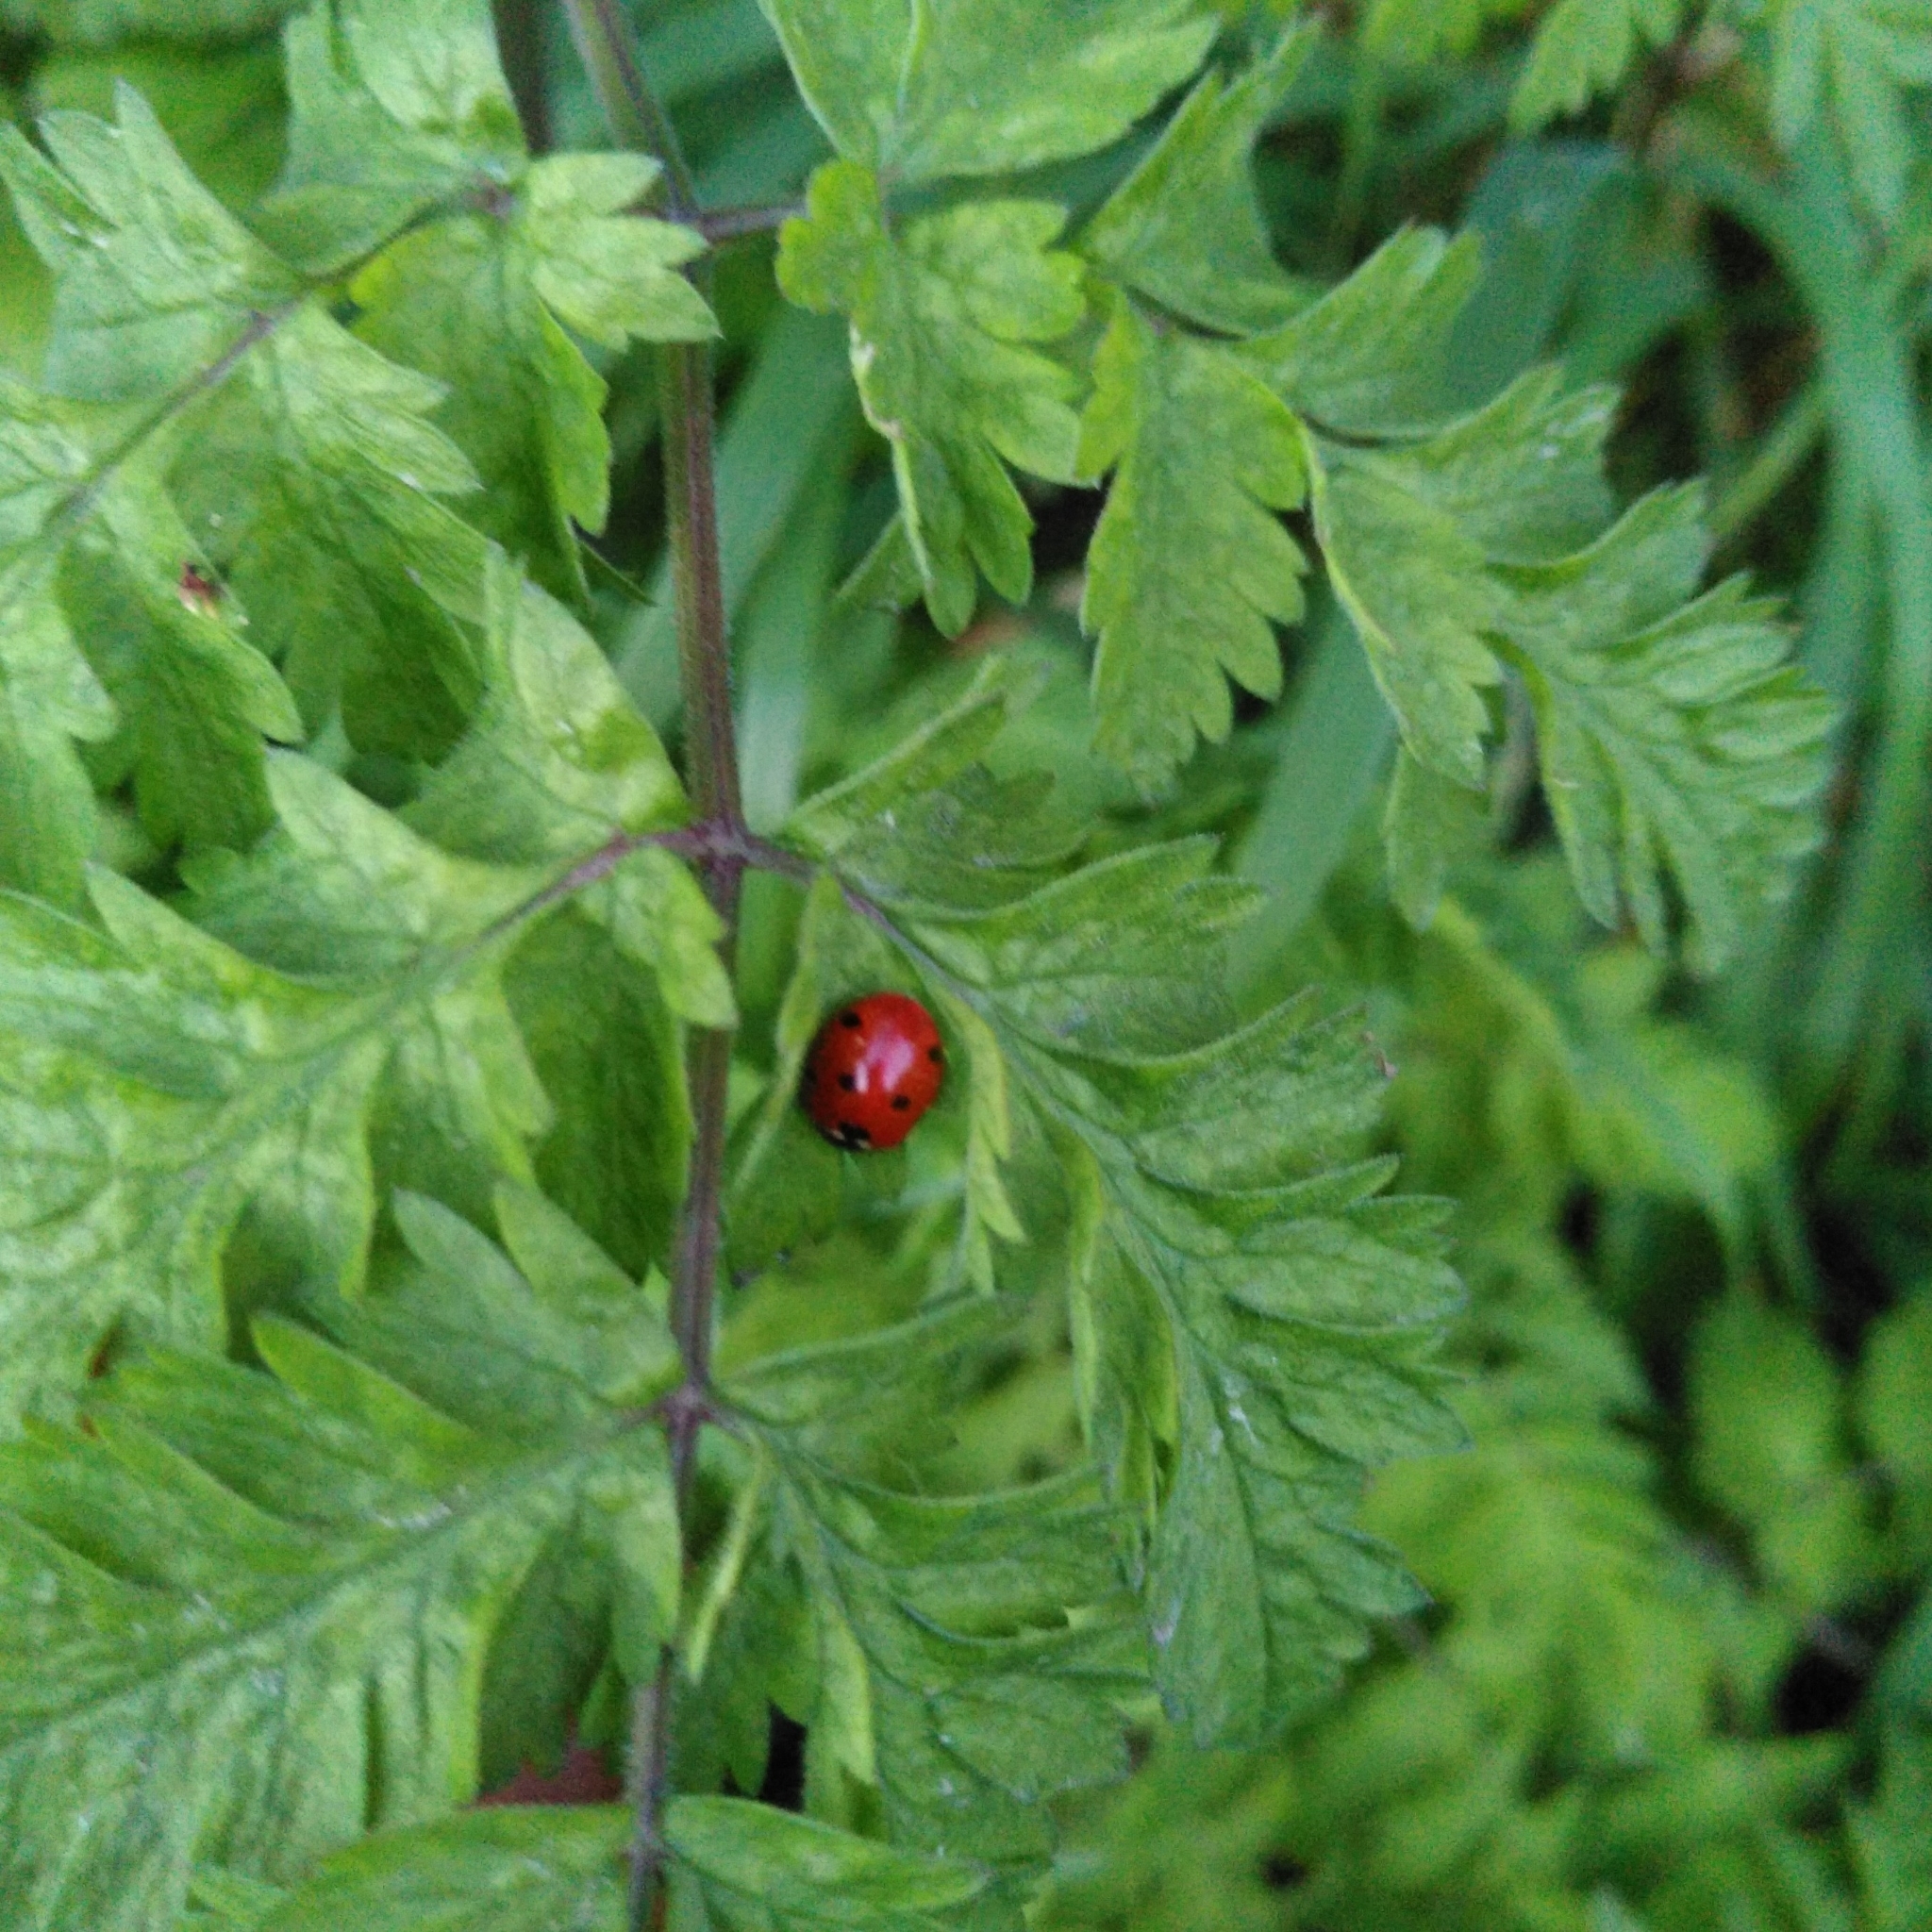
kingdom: Animalia
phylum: Arthropoda
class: Insecta
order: Coleoptera
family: Coccinellidae
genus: Coccinella
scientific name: Coccinella septempunctata
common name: Sevenspotted lady beetle
